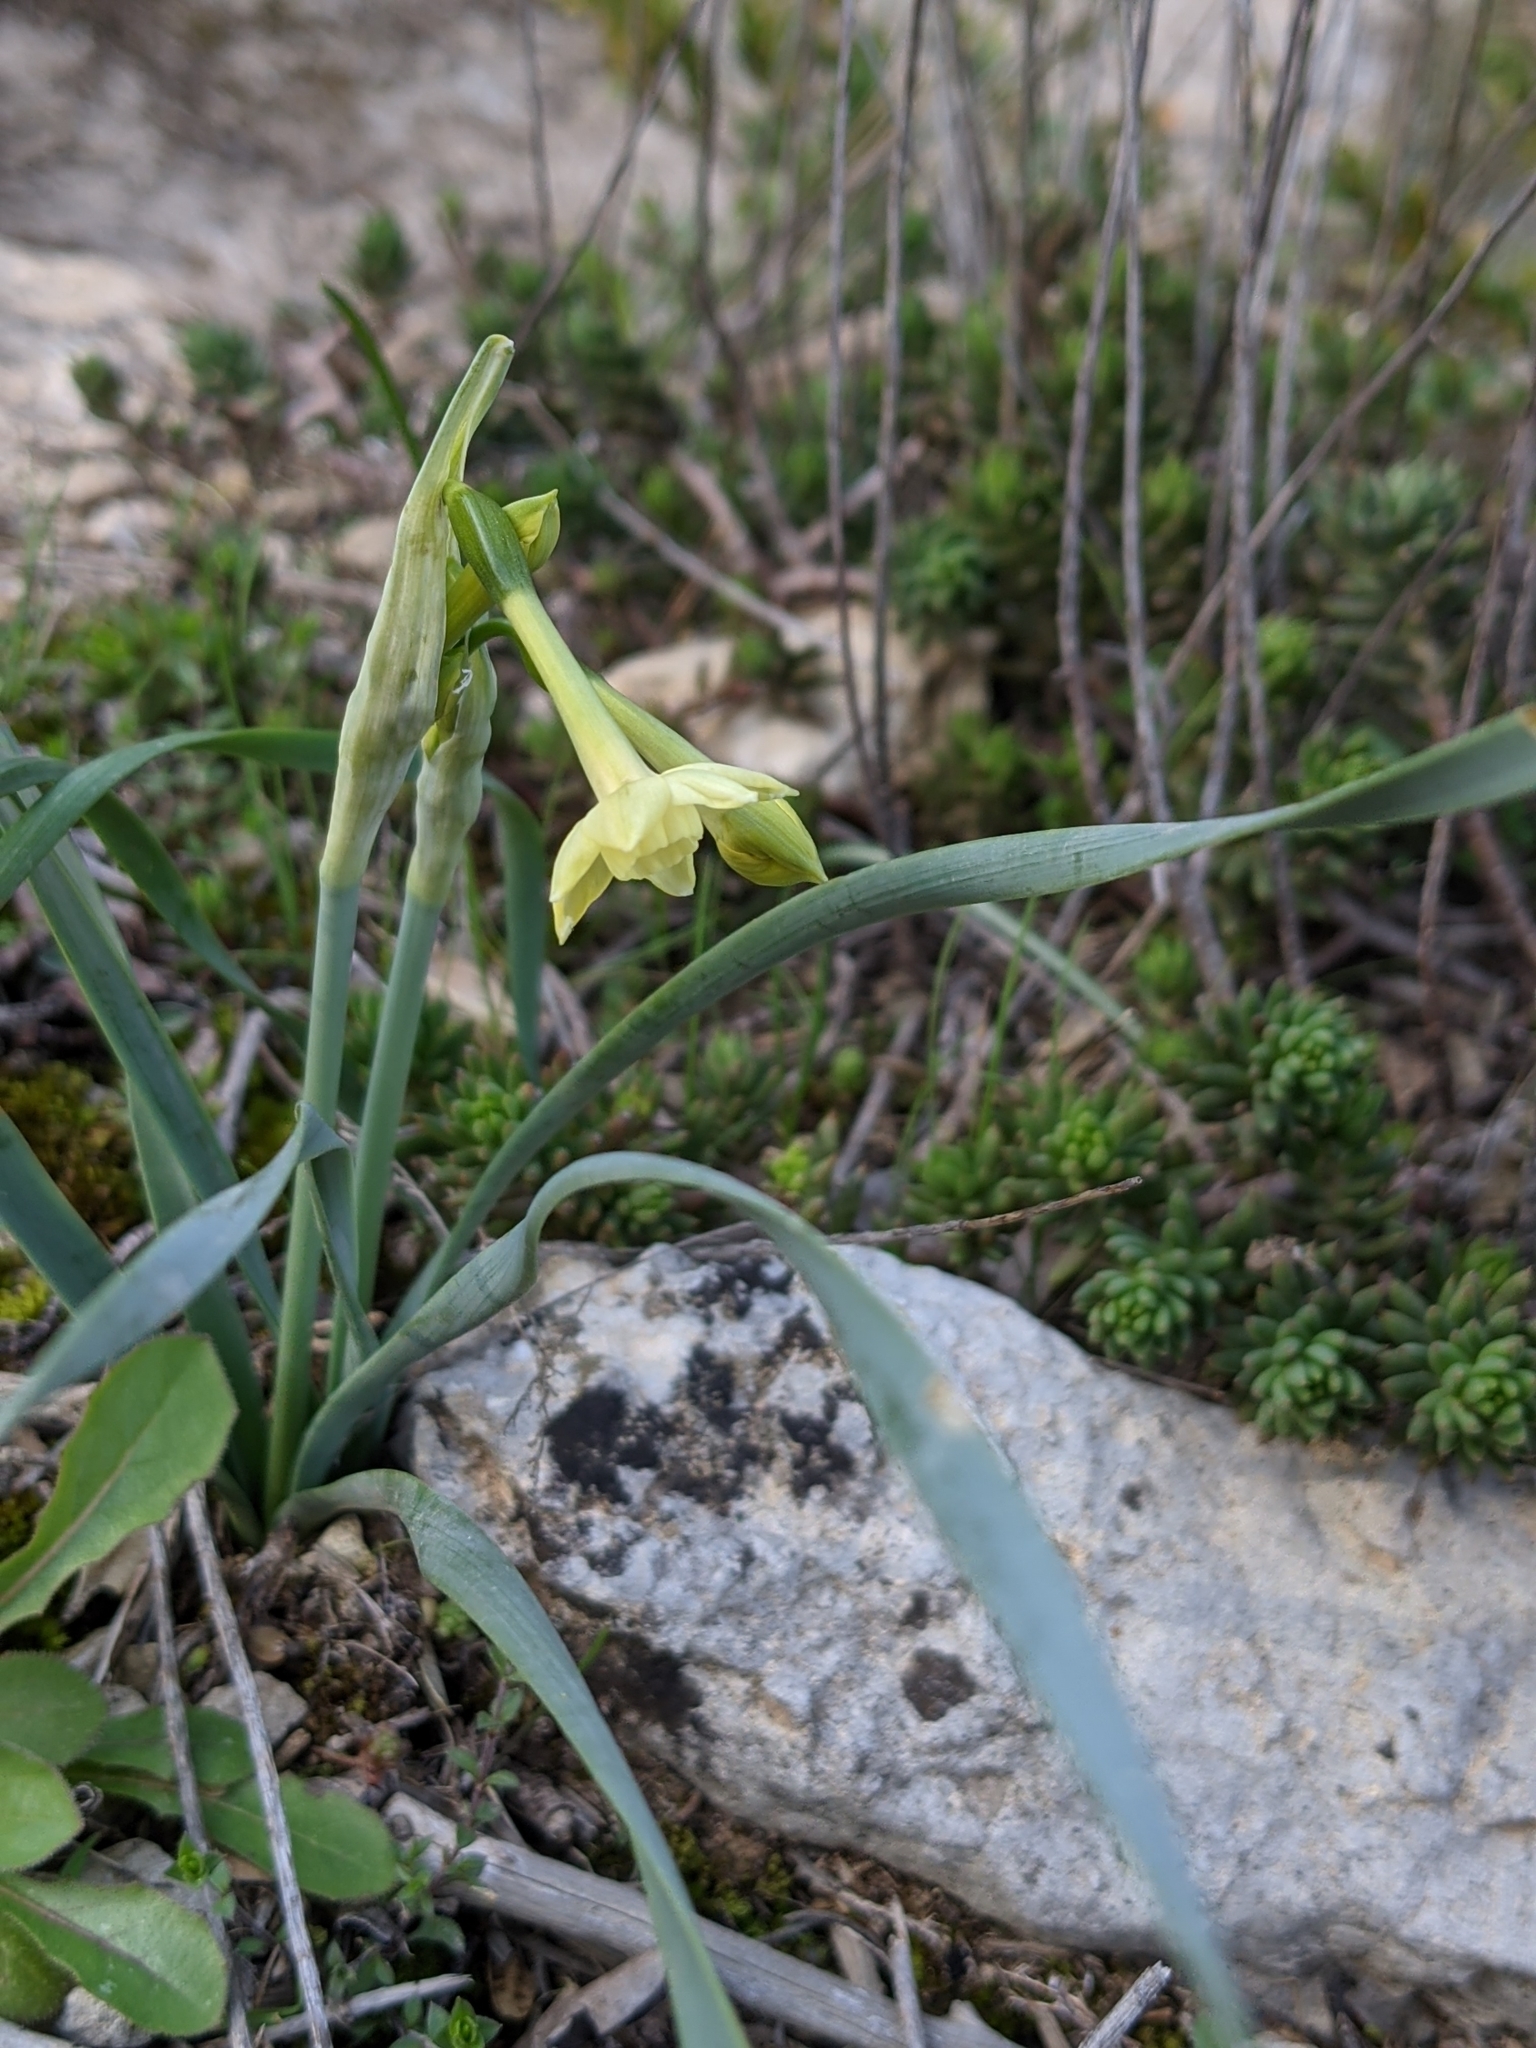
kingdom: Plantae
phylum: Tracheophyta
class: Liliopsida
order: Asparagales
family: Amaryllidaceae
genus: Narcissus
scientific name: Narcissus dubius
